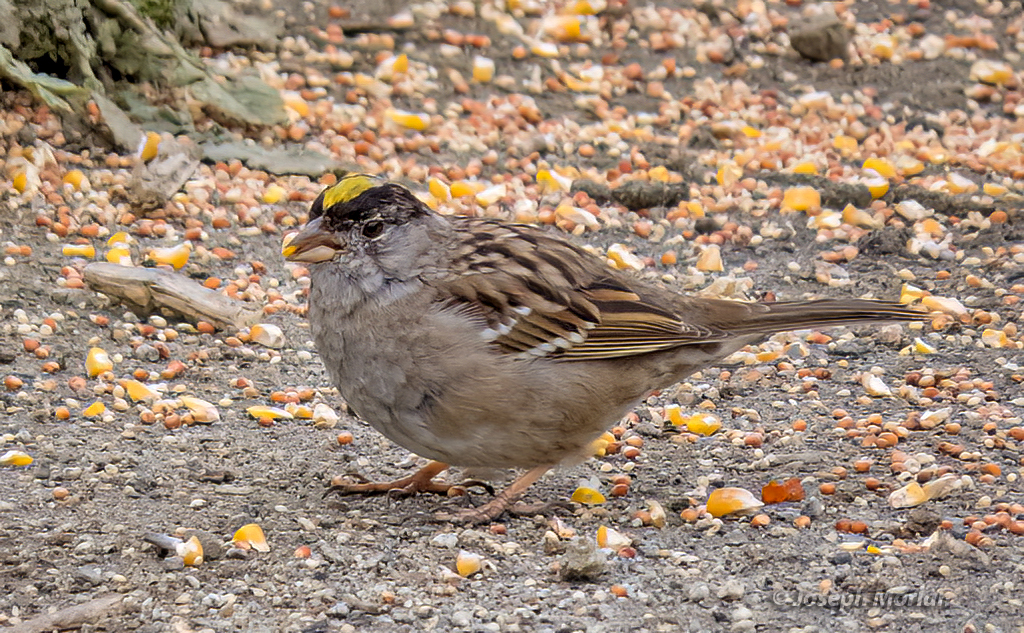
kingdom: Animalia
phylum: Chordata
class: Aves
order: Passeriformes
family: Passerellidae
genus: Zonotrichia
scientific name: Zonotrichia atricapilla
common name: Golden-crowned sparrow
